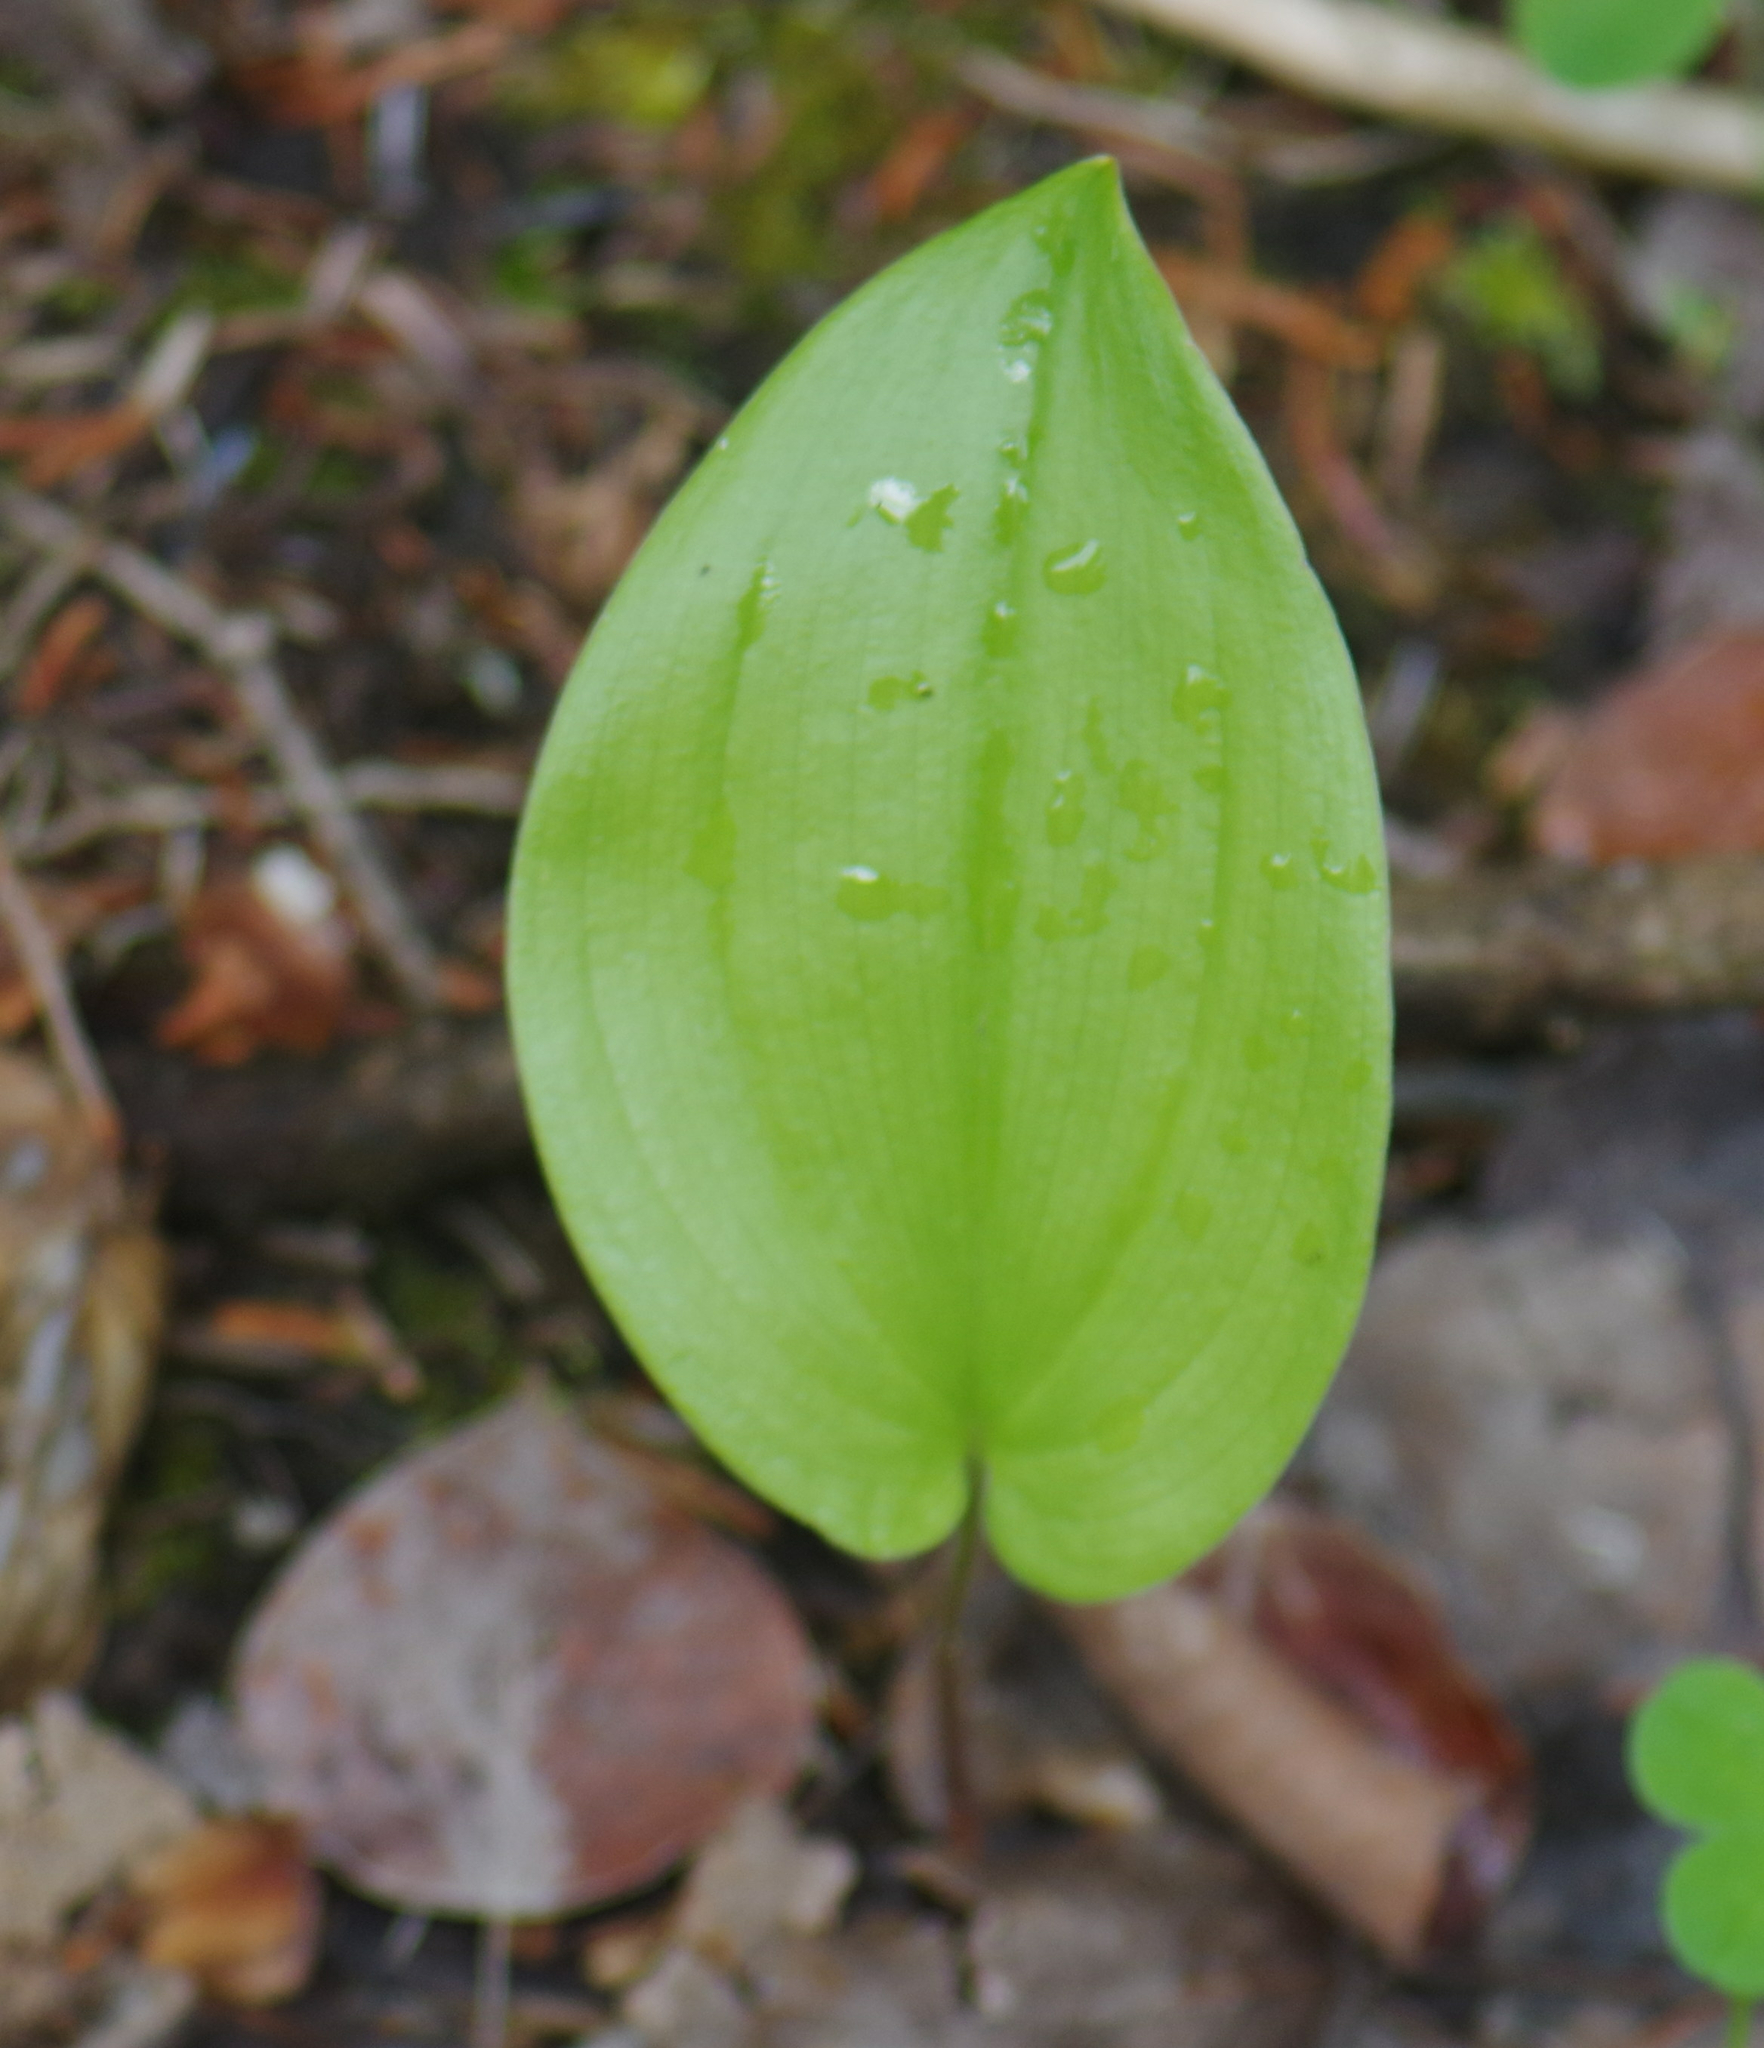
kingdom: Plantae
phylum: Tracheophyta
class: Liliopsida
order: Asparagales
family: Asparagaceae
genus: Maianthemum
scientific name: Maianthemum canadense
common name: False lily-of-the-valley
